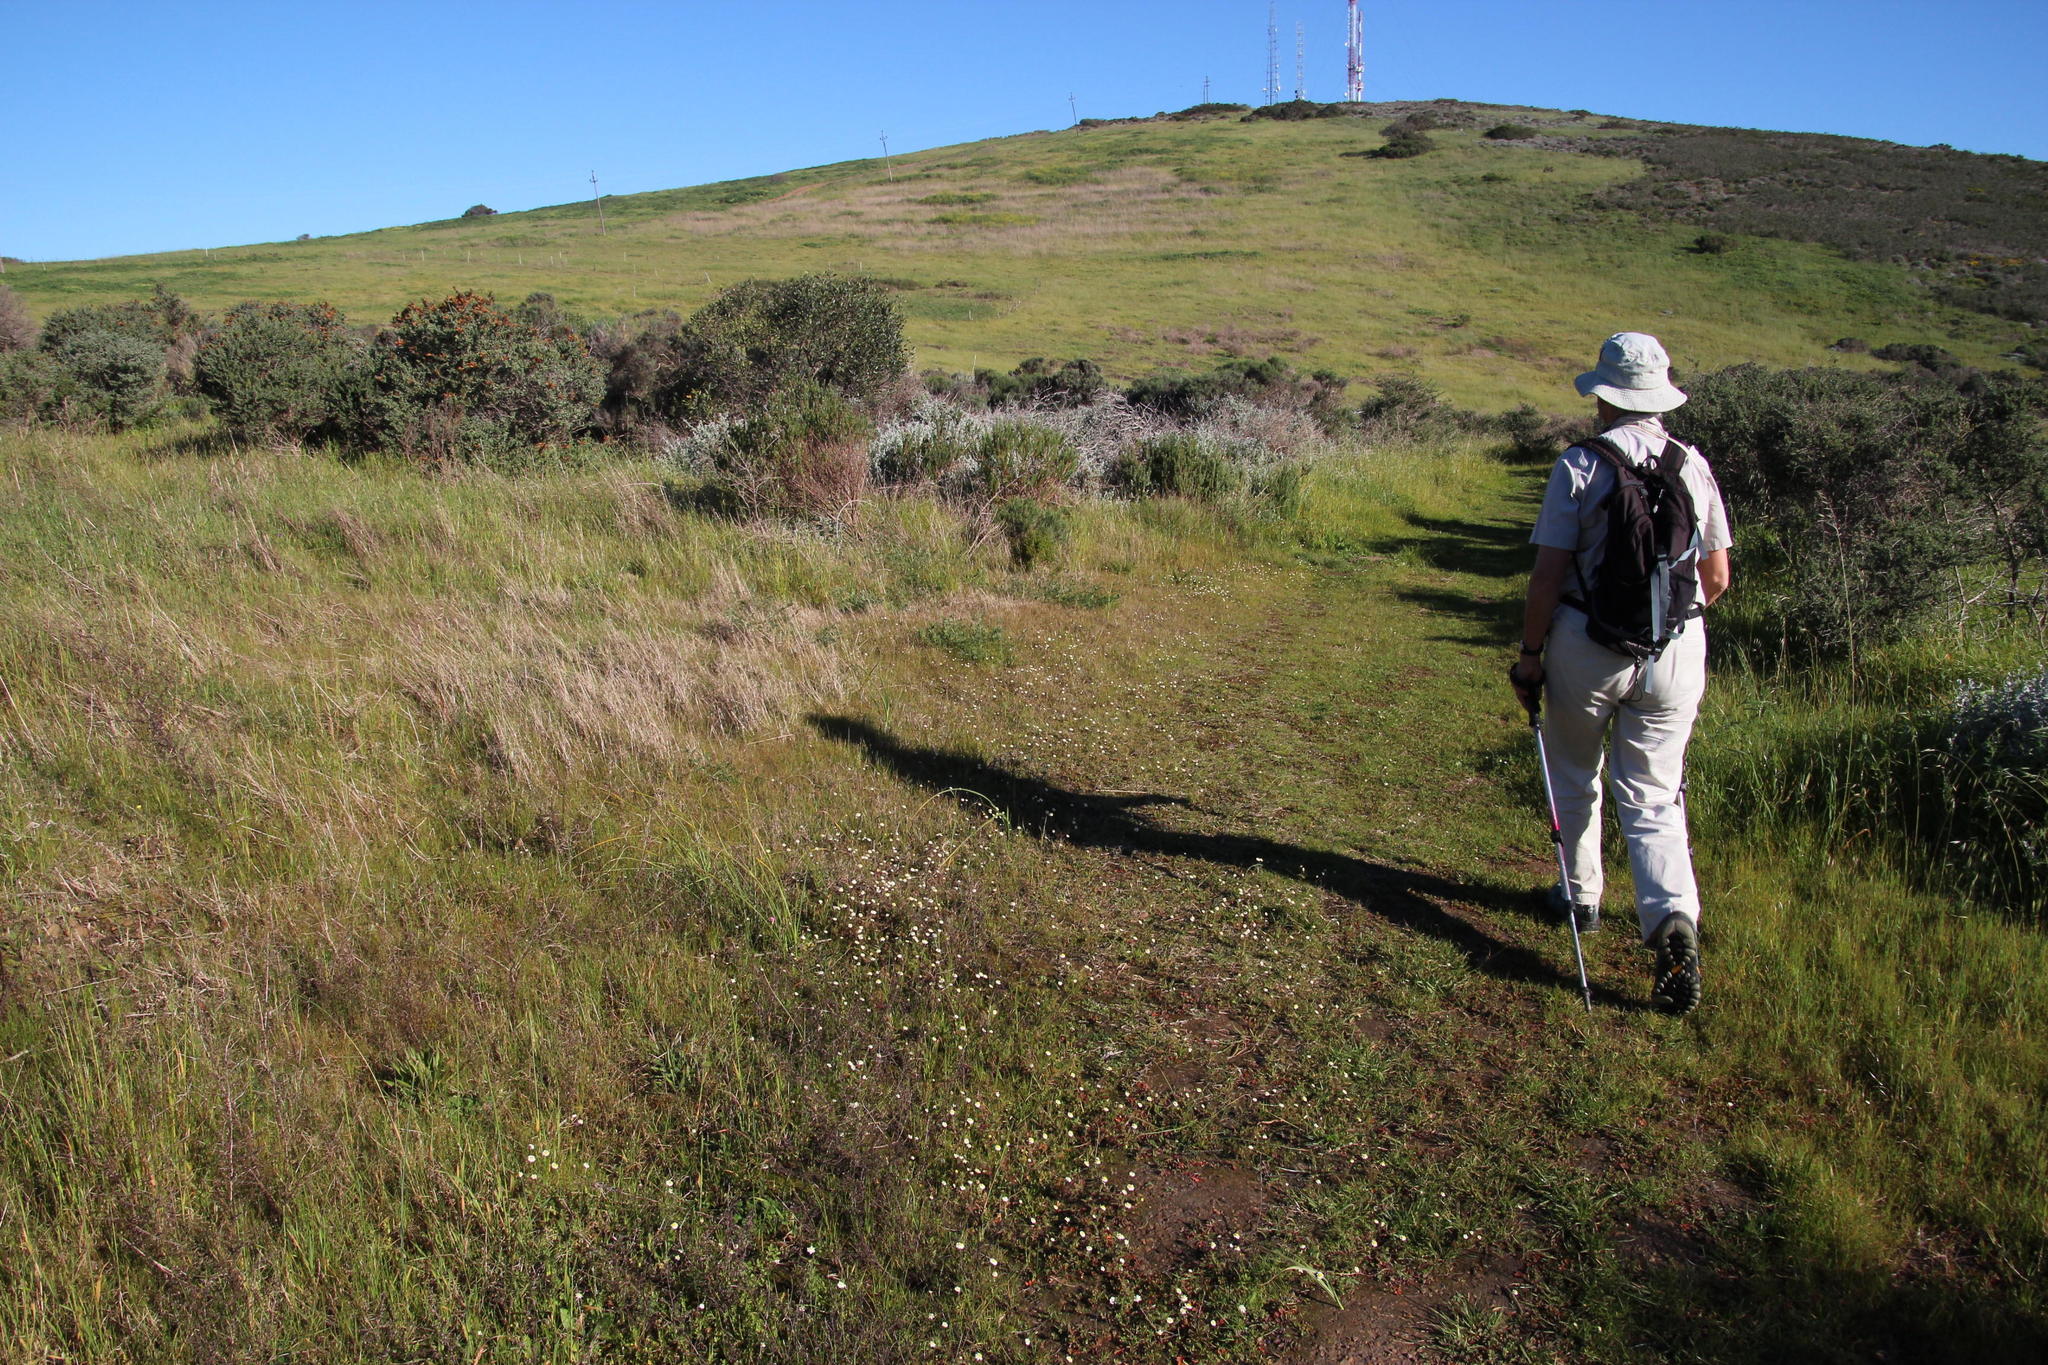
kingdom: Plantae
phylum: Tracheophyta
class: Magnoliopsida
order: Asterales
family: Asteraceae
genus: Cotula
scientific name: Cotula turbinata
